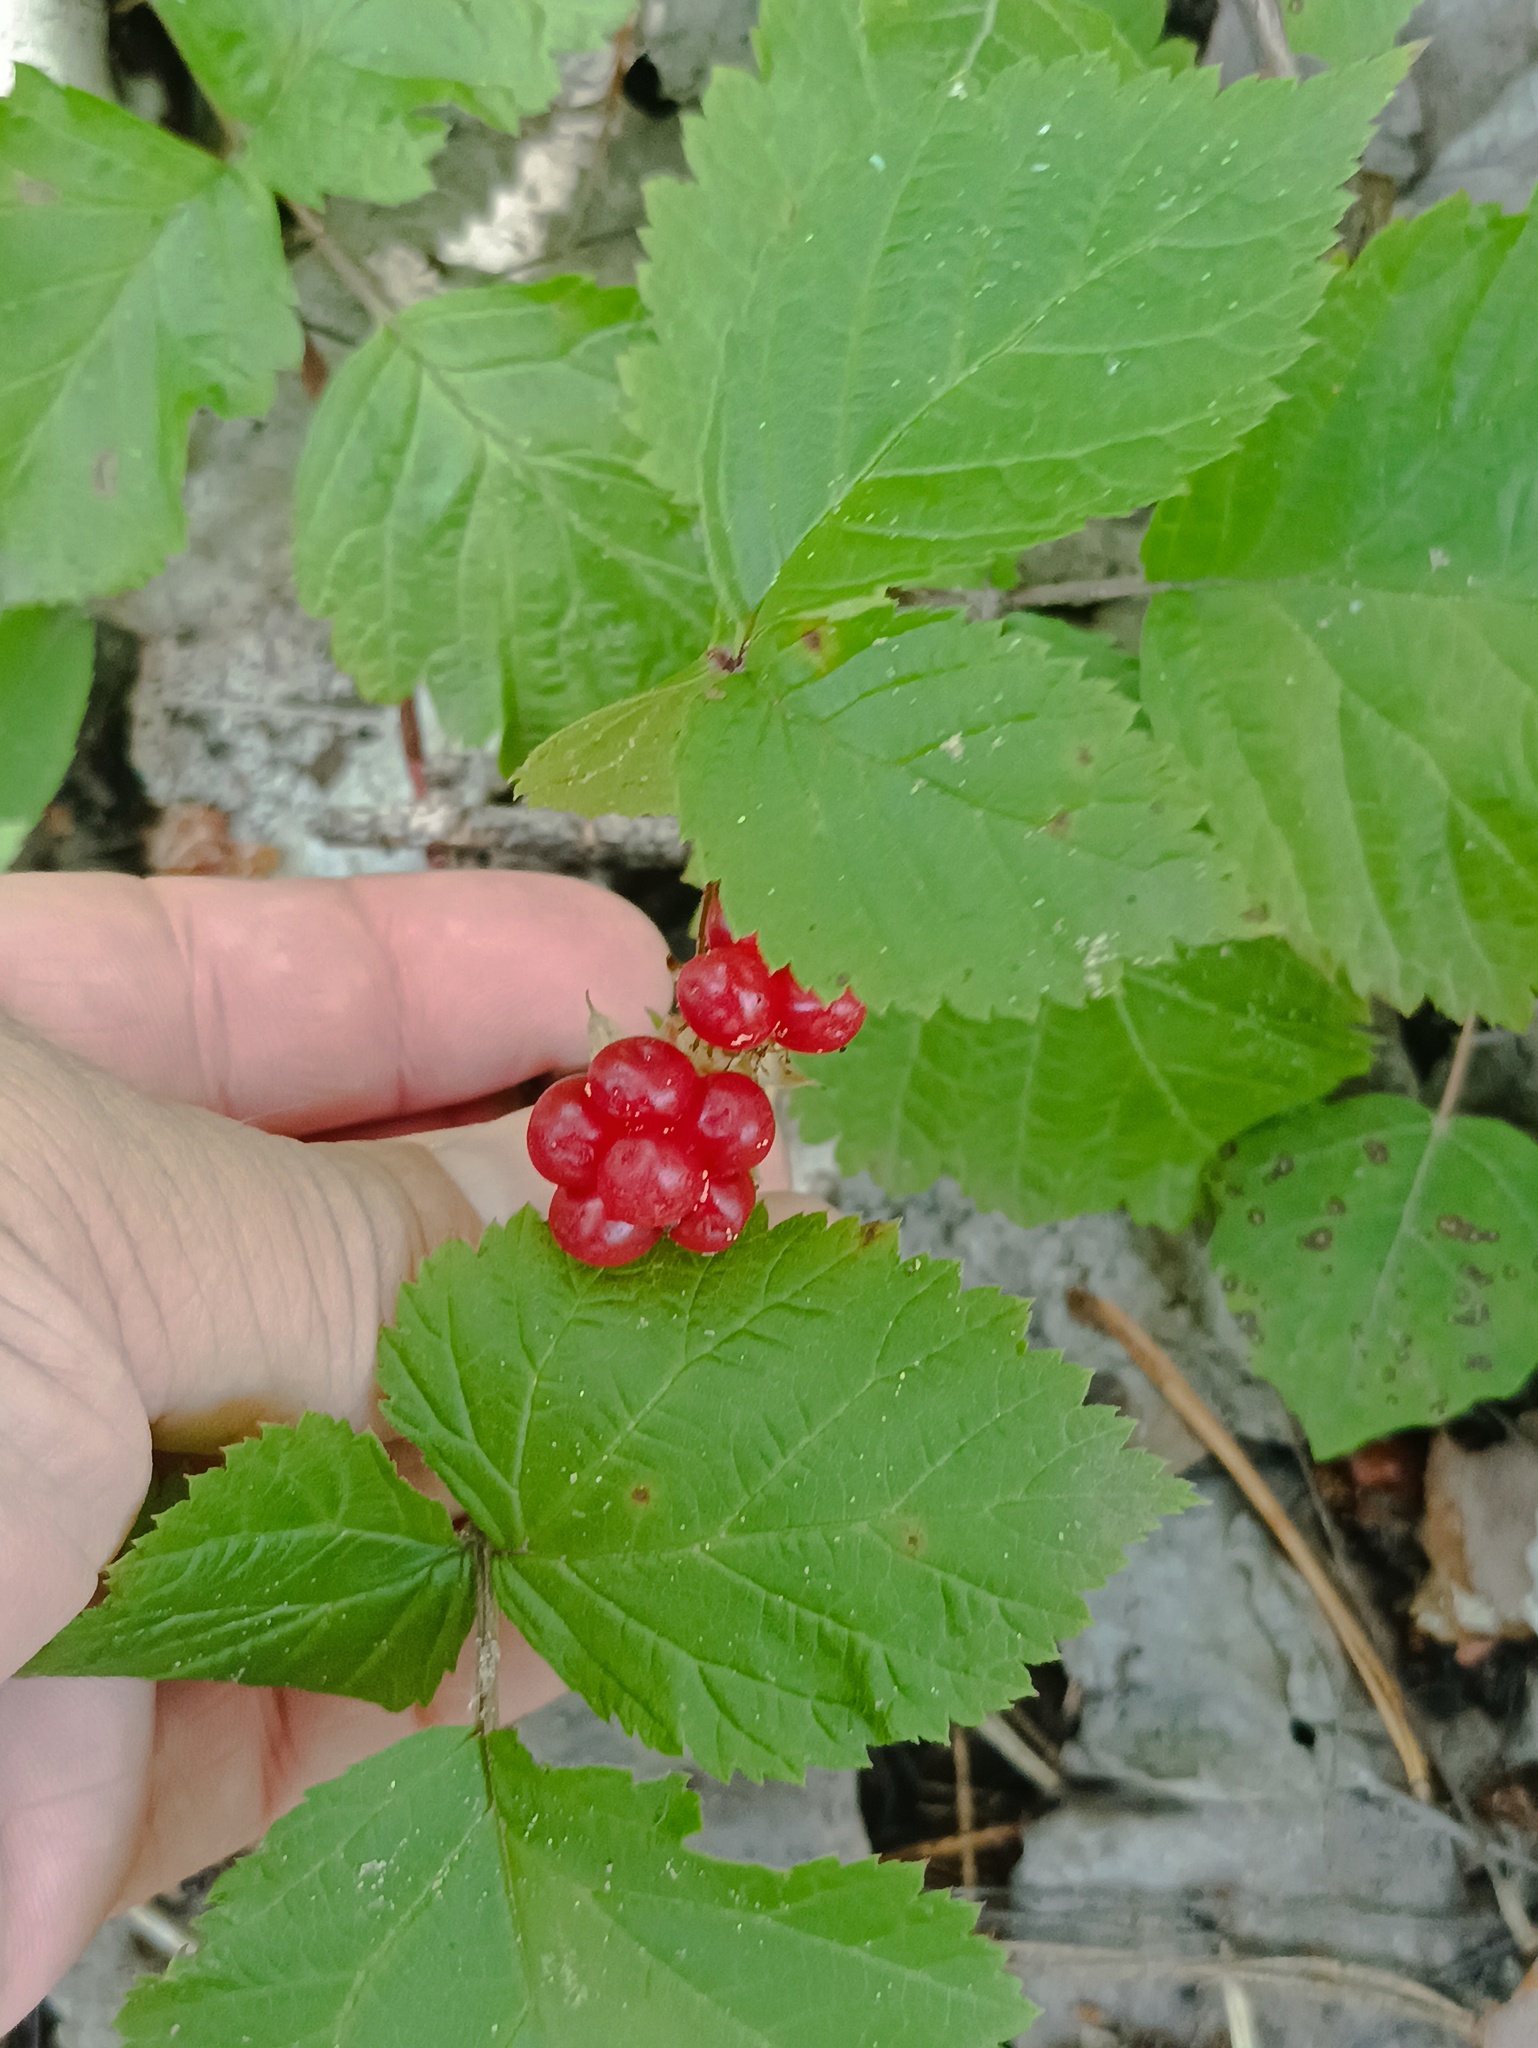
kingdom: Plantae
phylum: Tracheophyta
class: Magnoliopsida
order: Rosales
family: Rosaceae
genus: Rubus
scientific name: Rubus saxatilis
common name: Stone bramble
